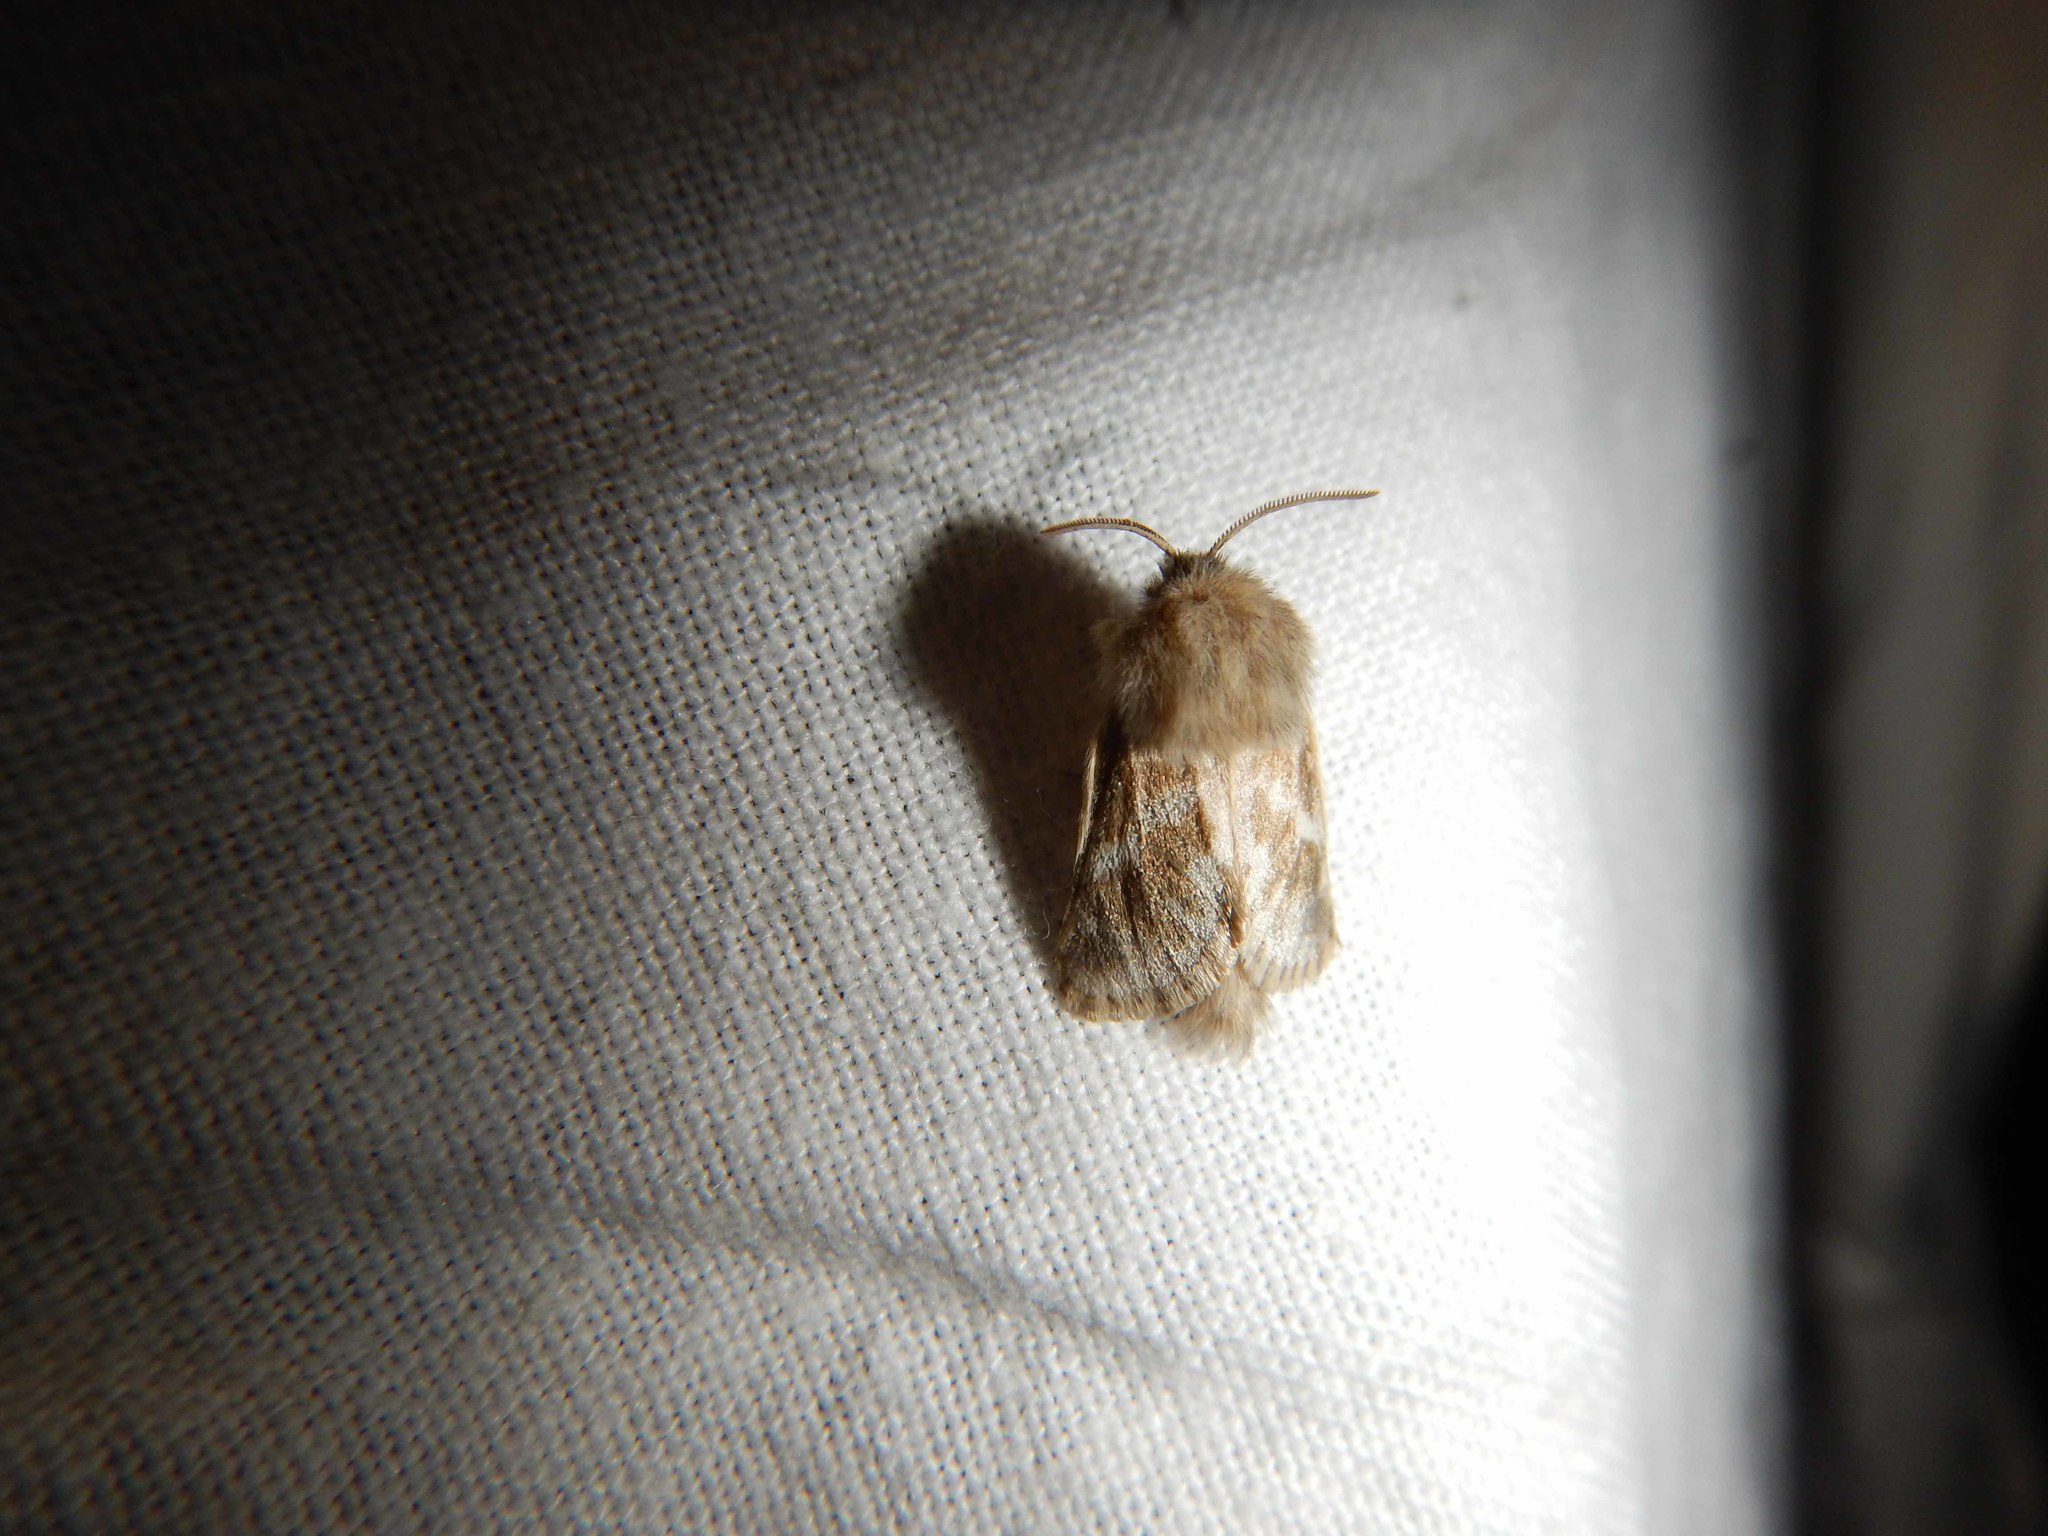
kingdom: Animalia
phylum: Arthropoda
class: Insecta
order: Lepidoptera
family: Cossidae
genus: Dyspessa
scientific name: Dyspessa ulula
